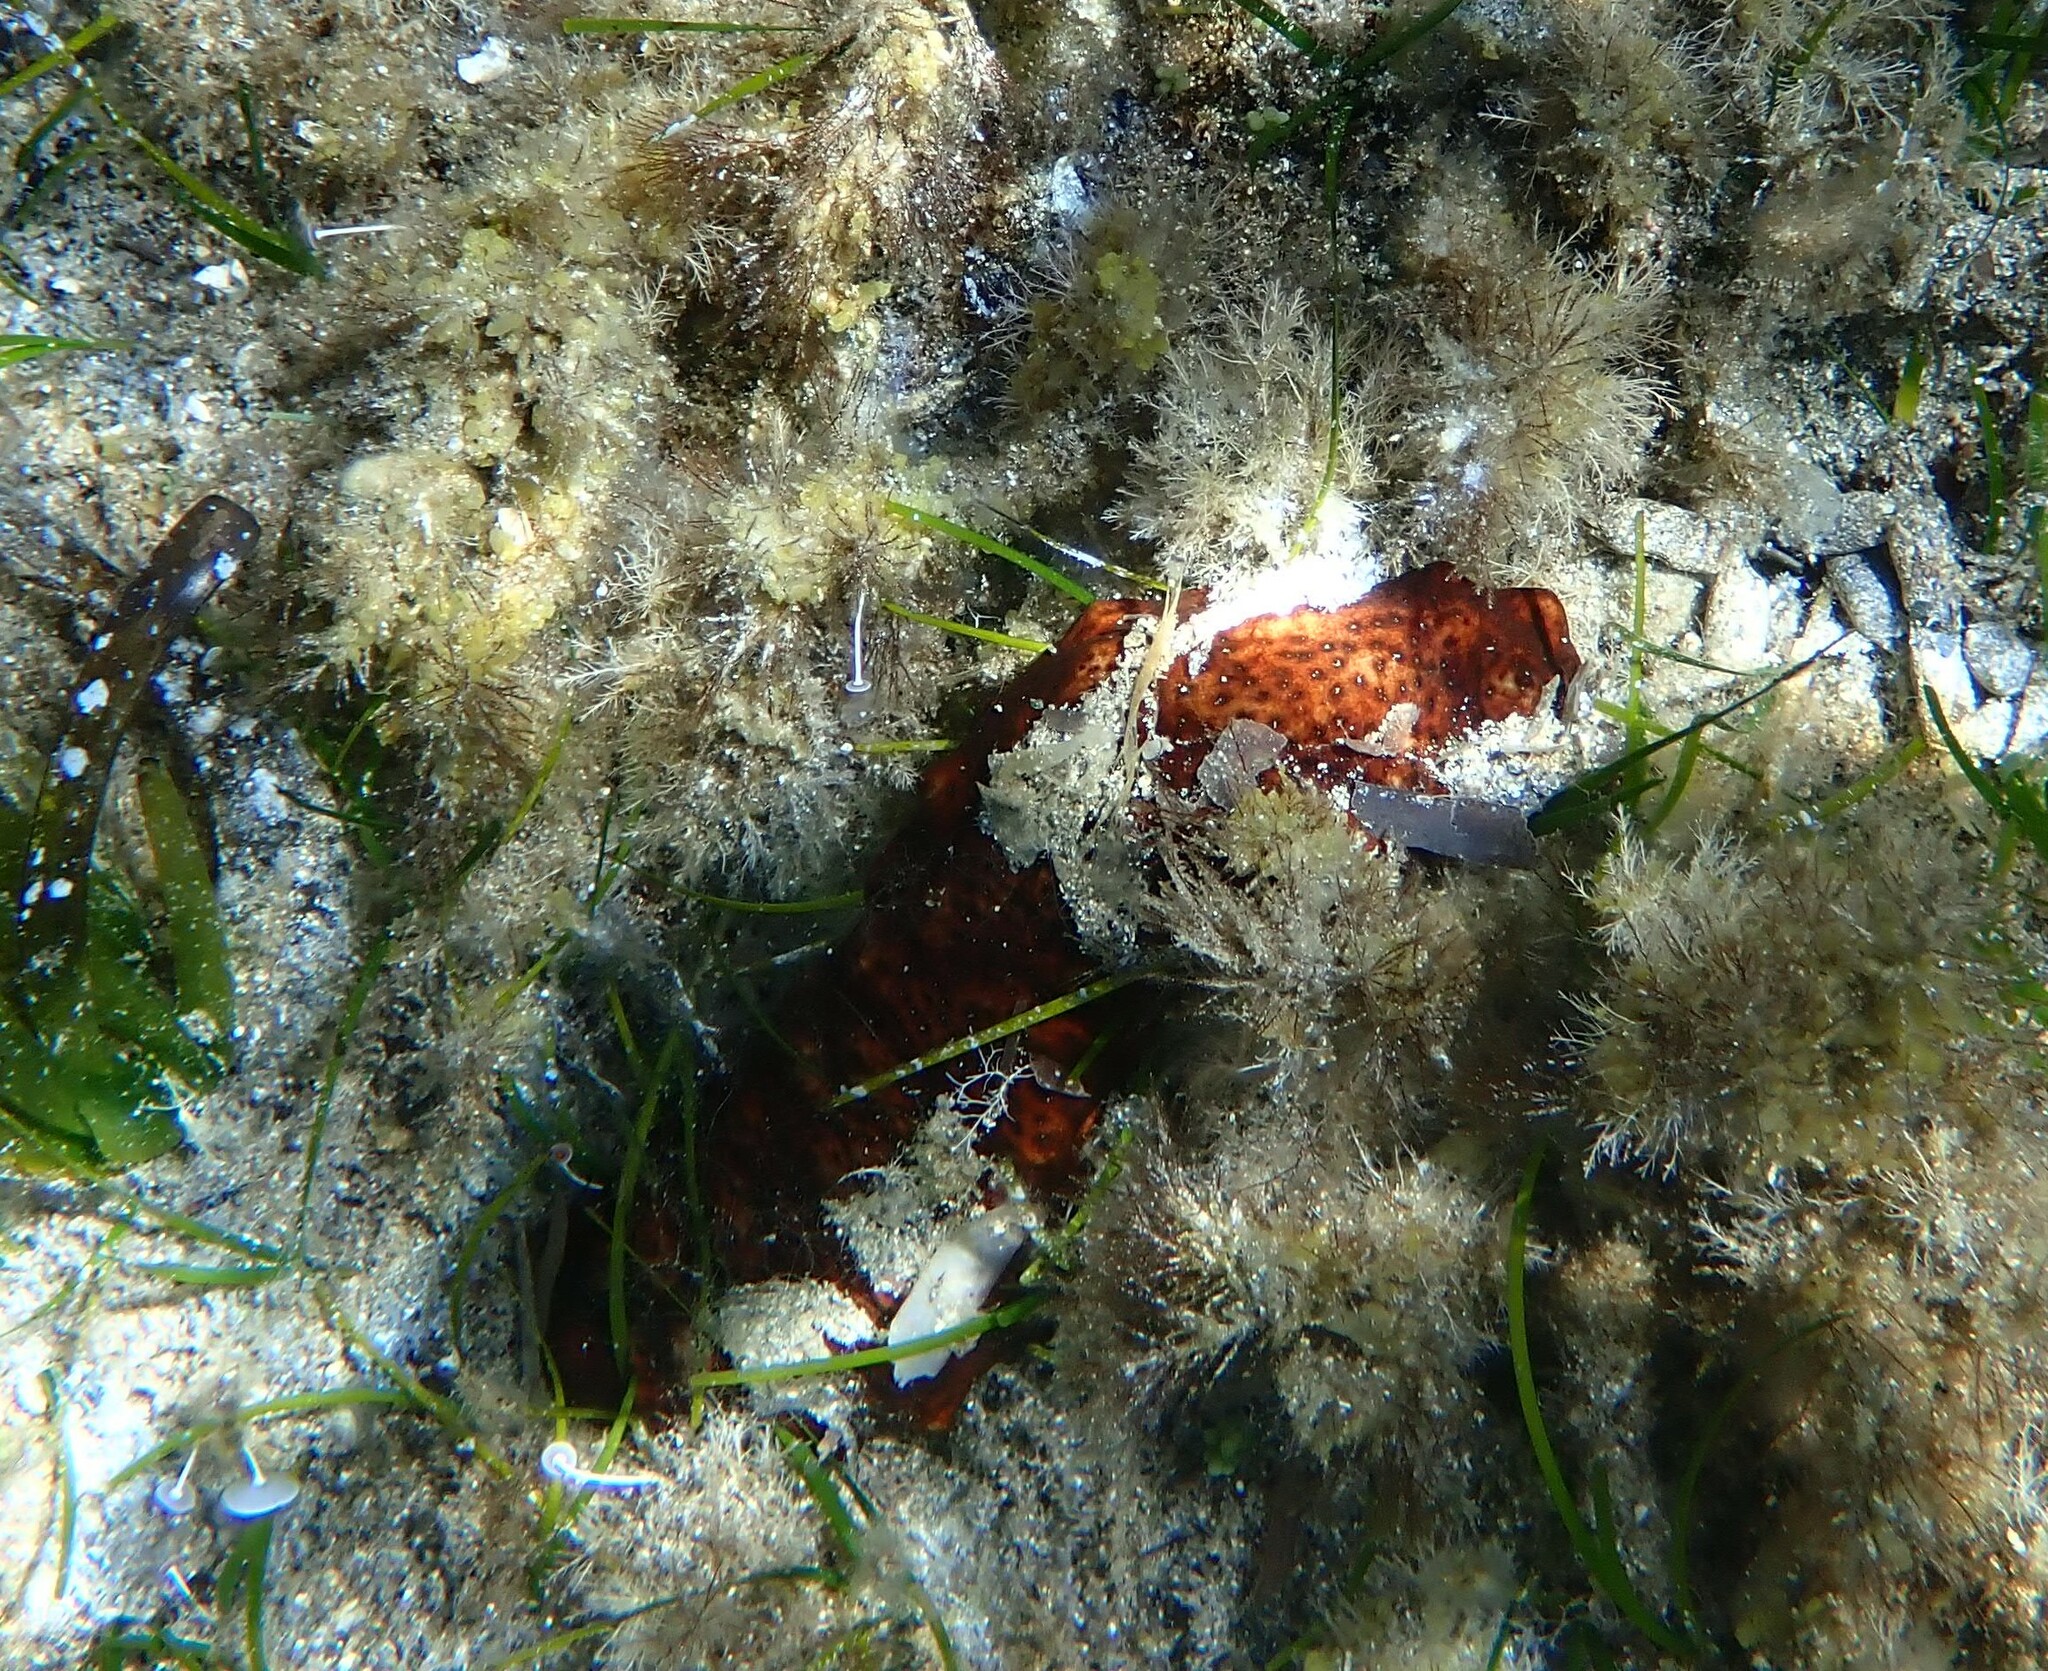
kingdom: Animalia
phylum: Echinodermata
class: Holothuroidea
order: Holothuriida
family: Holothuriidae
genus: Holothuria
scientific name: Holothuria poli
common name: White spot cucumber
